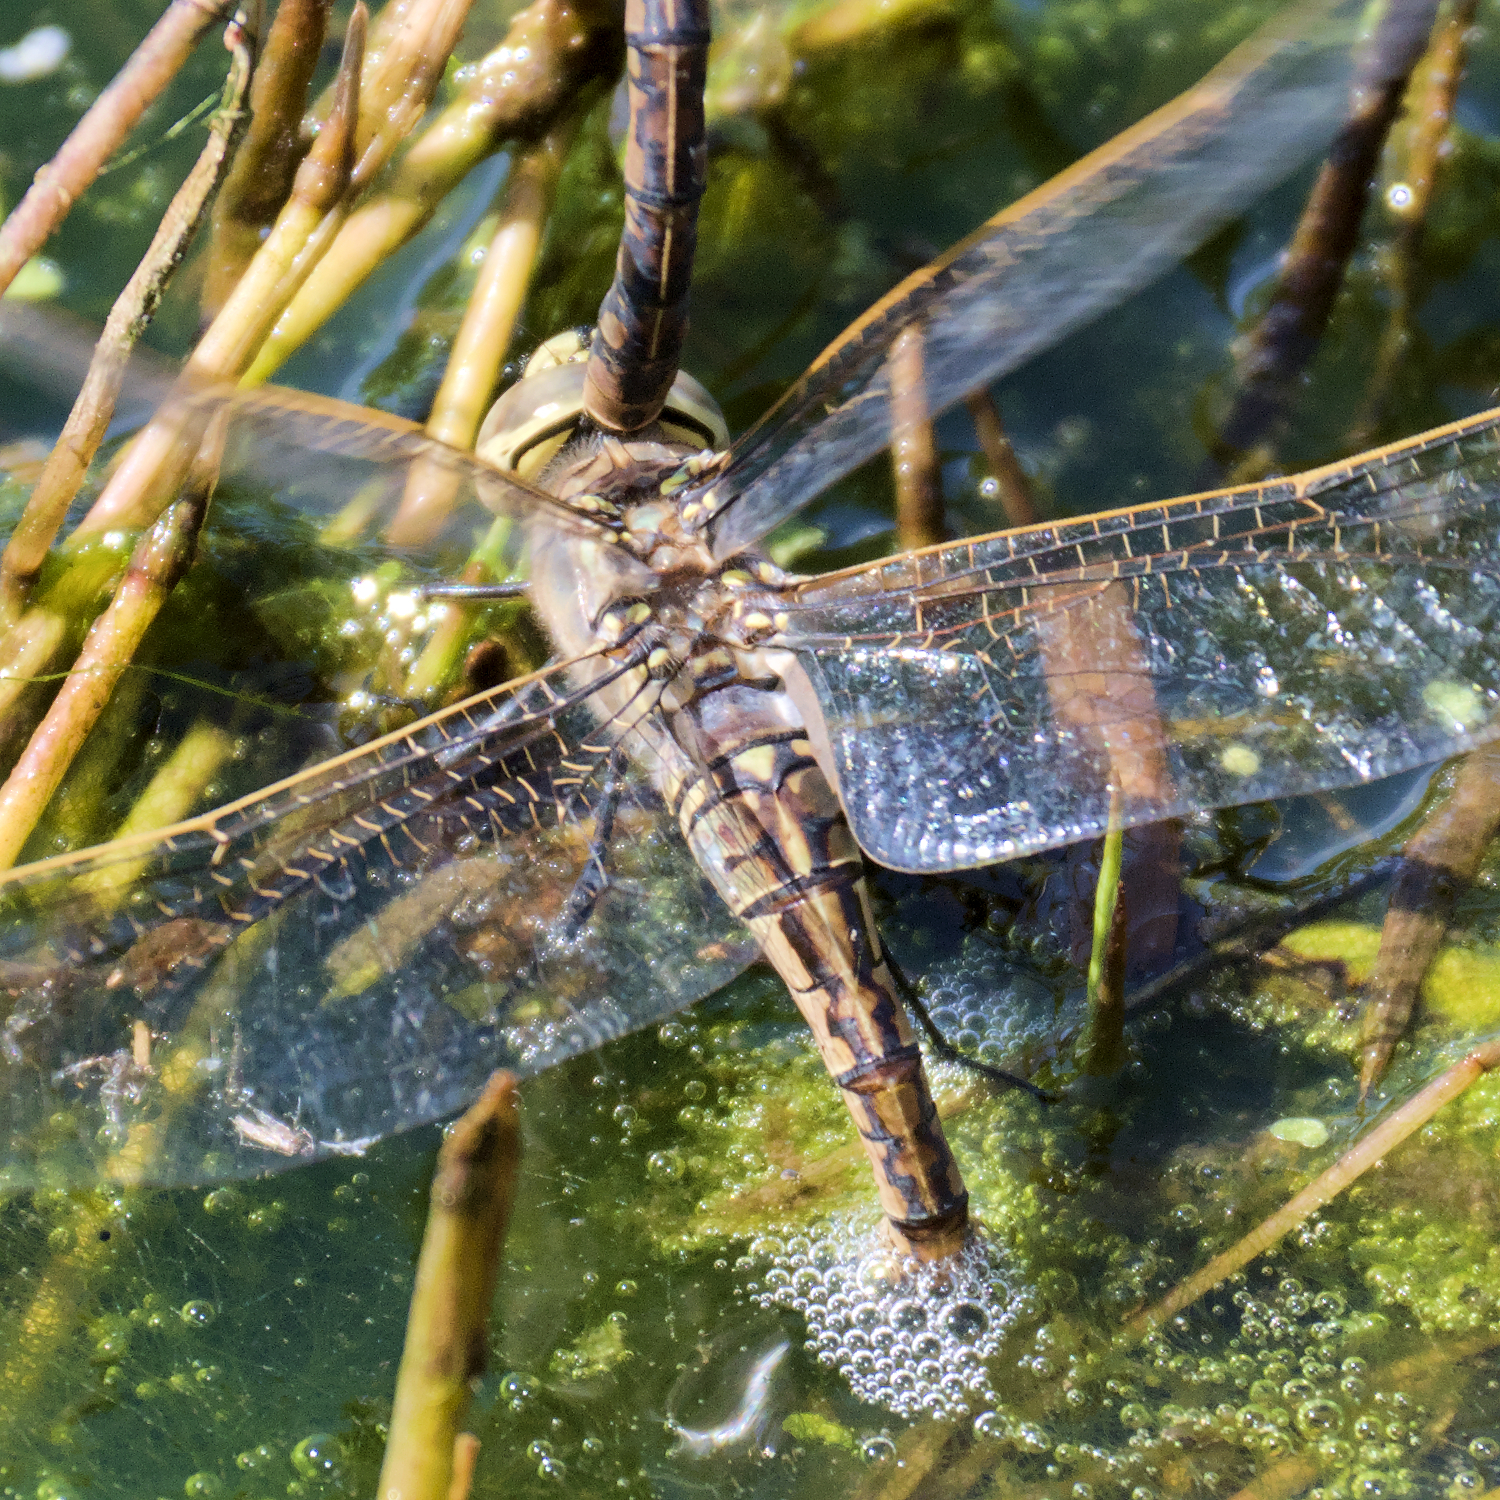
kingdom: Animalia
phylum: Arthropoda
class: Insecta
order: Odonata
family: Aeshnidae
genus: Anax
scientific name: Anax papuensis
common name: Australian emperor
